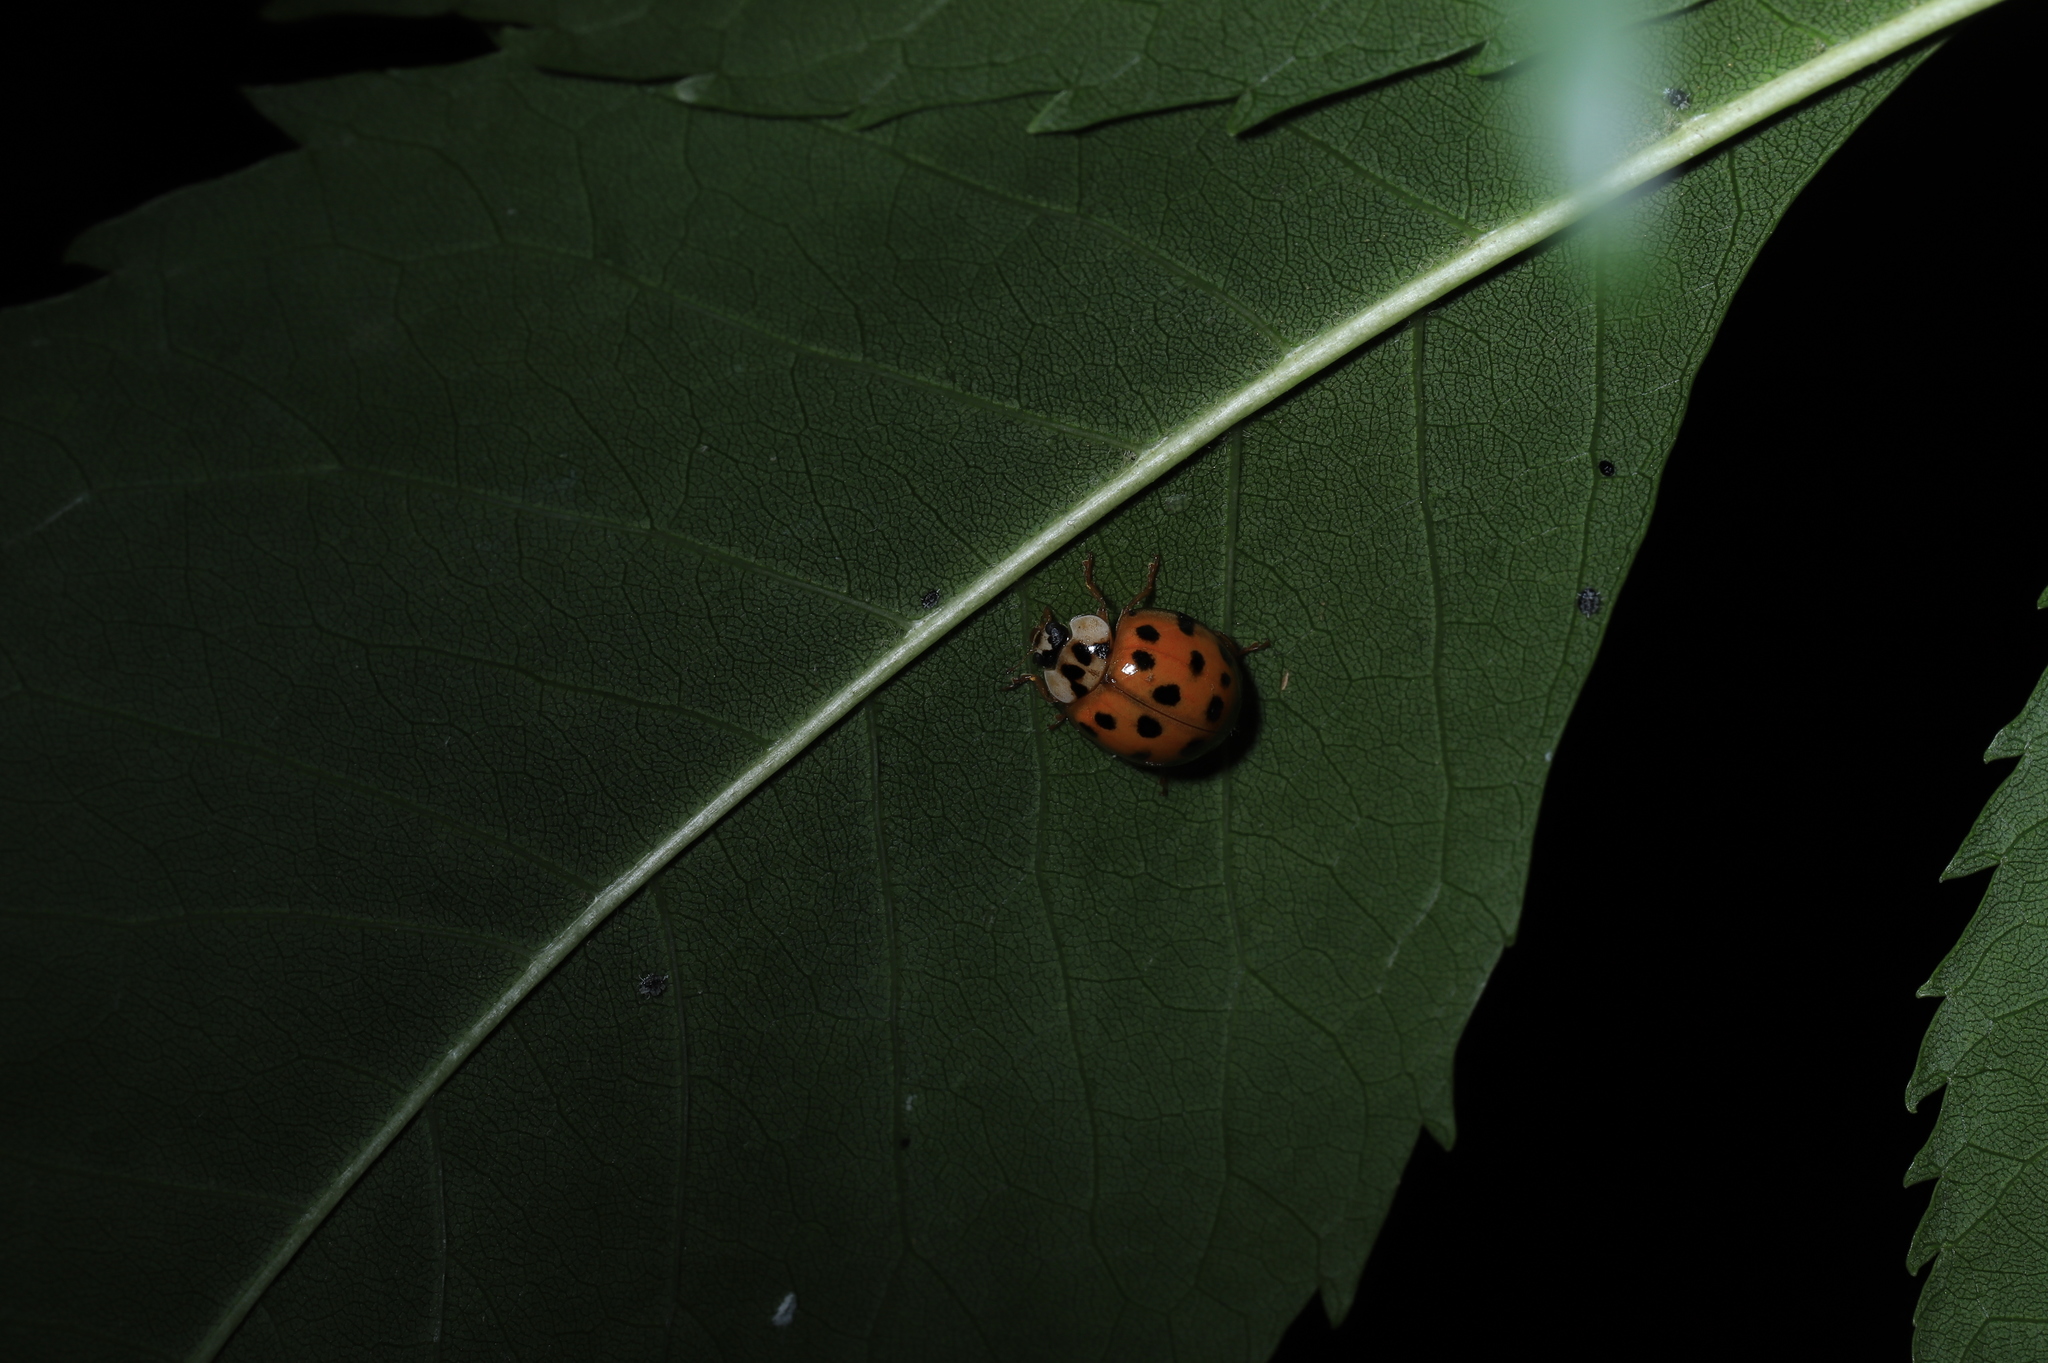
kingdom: Animalia
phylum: Arthropoda
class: Insecta
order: Coleoptera
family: Coccinellidae
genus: Harmonia
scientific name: Harmonia axyridis
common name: Harlequin ladybird
